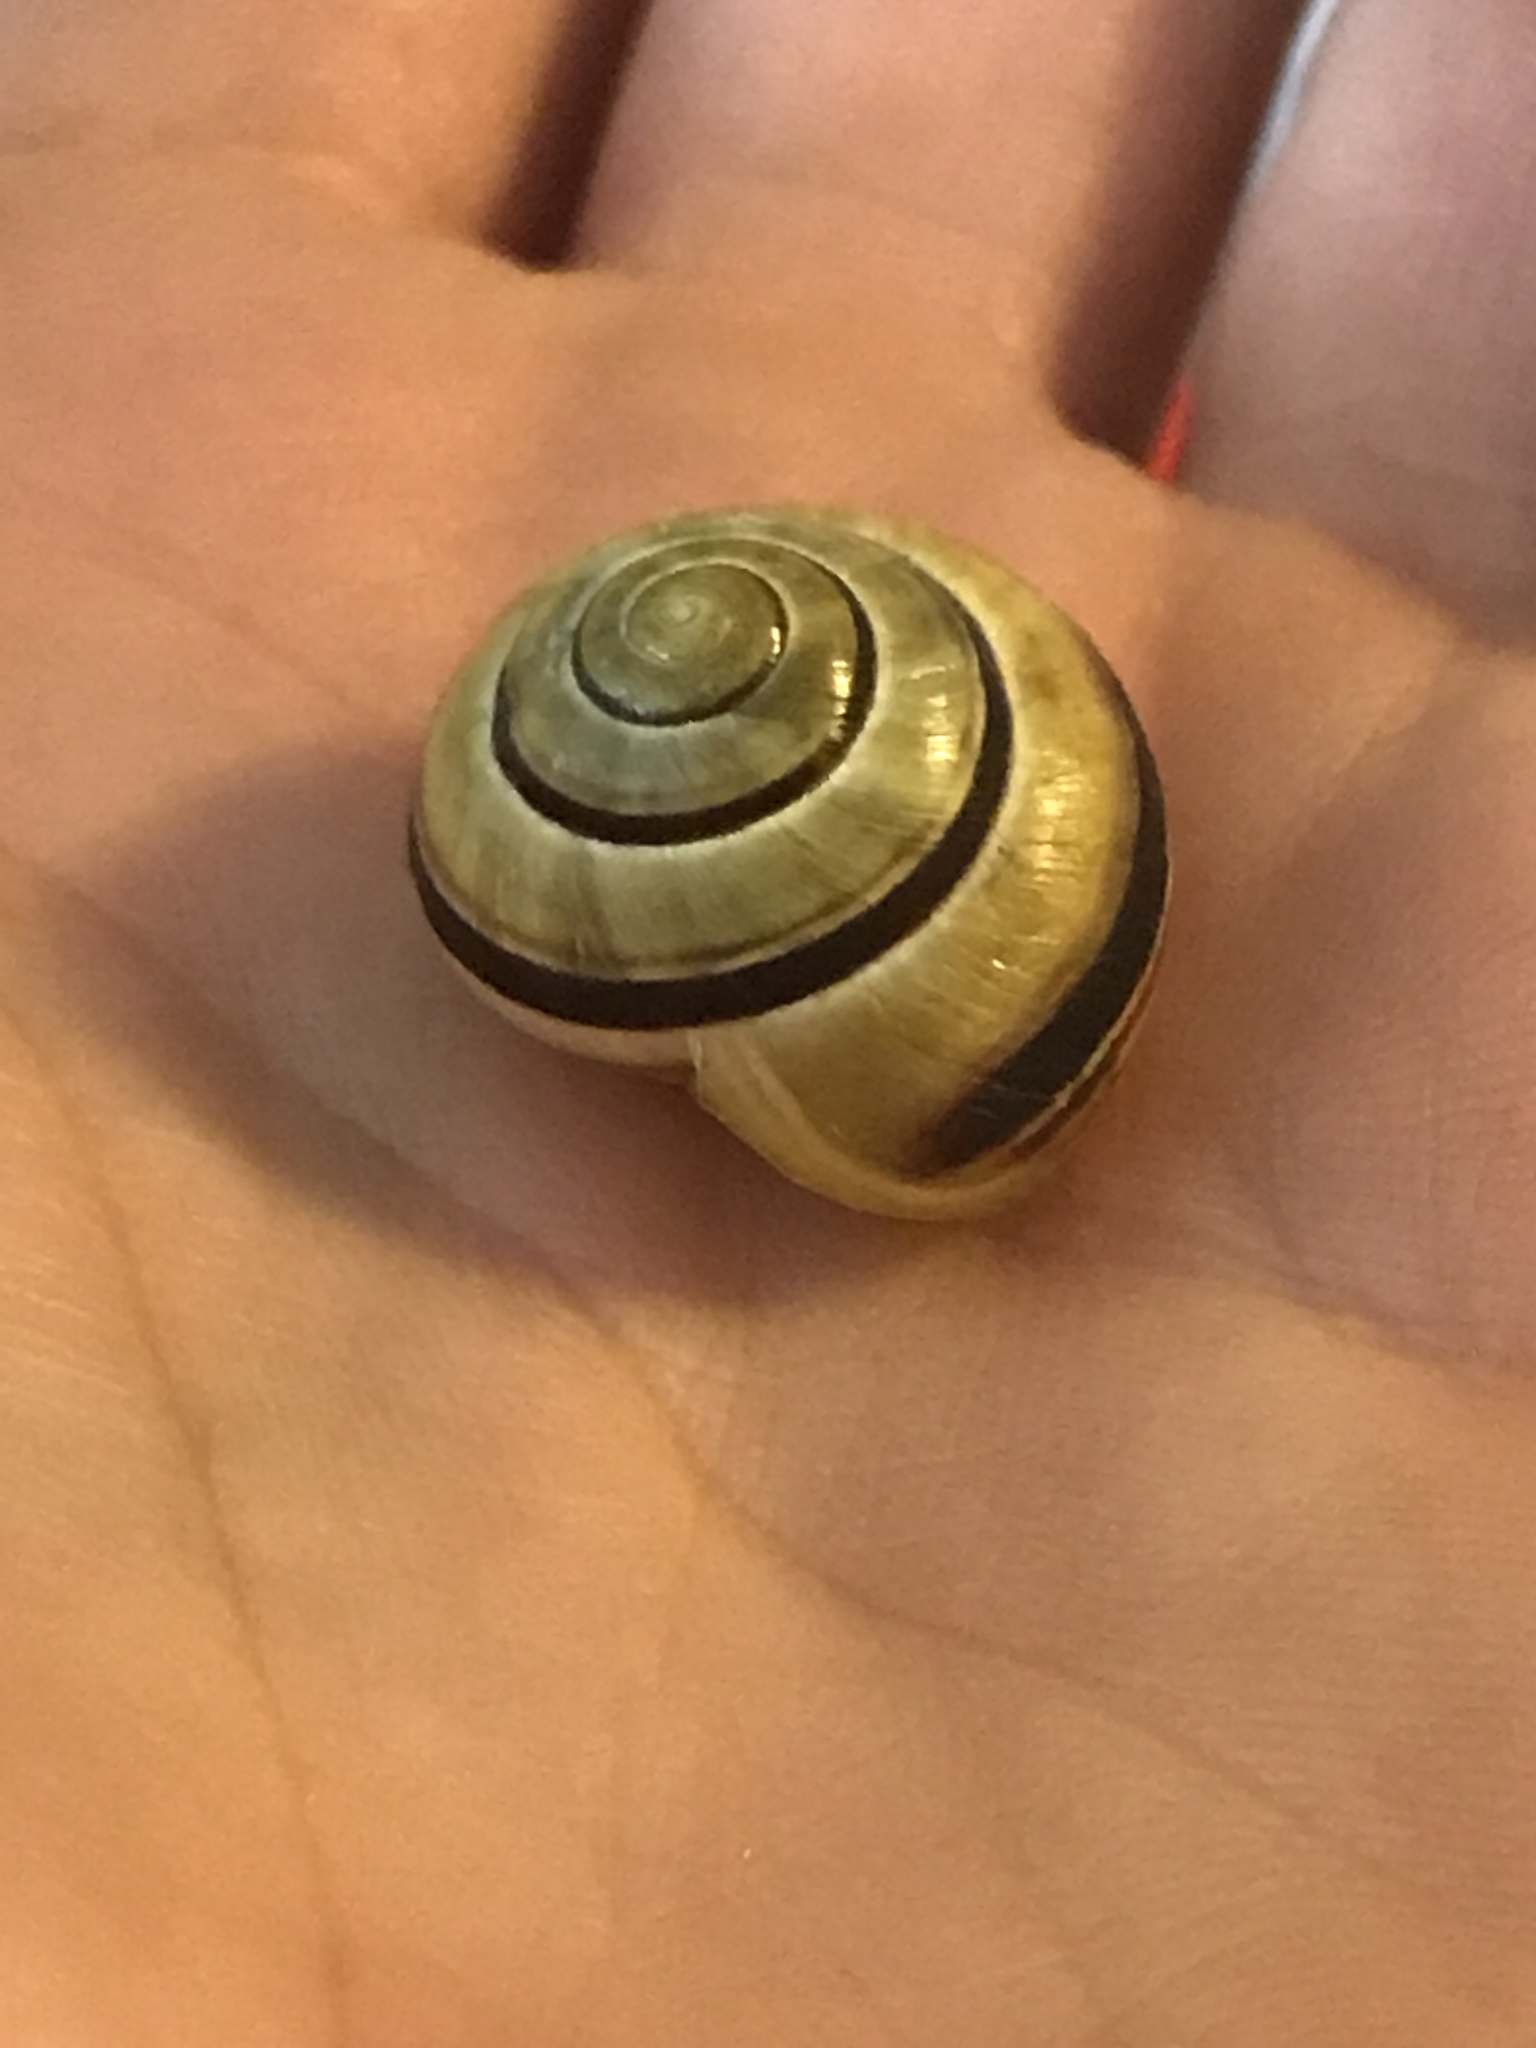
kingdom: Animalia
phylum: Mollusca
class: Gastropoda
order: Stylommatophora
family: Helicidae
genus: Cepaea
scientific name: Cepaea nemoralis
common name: Grovesnail
